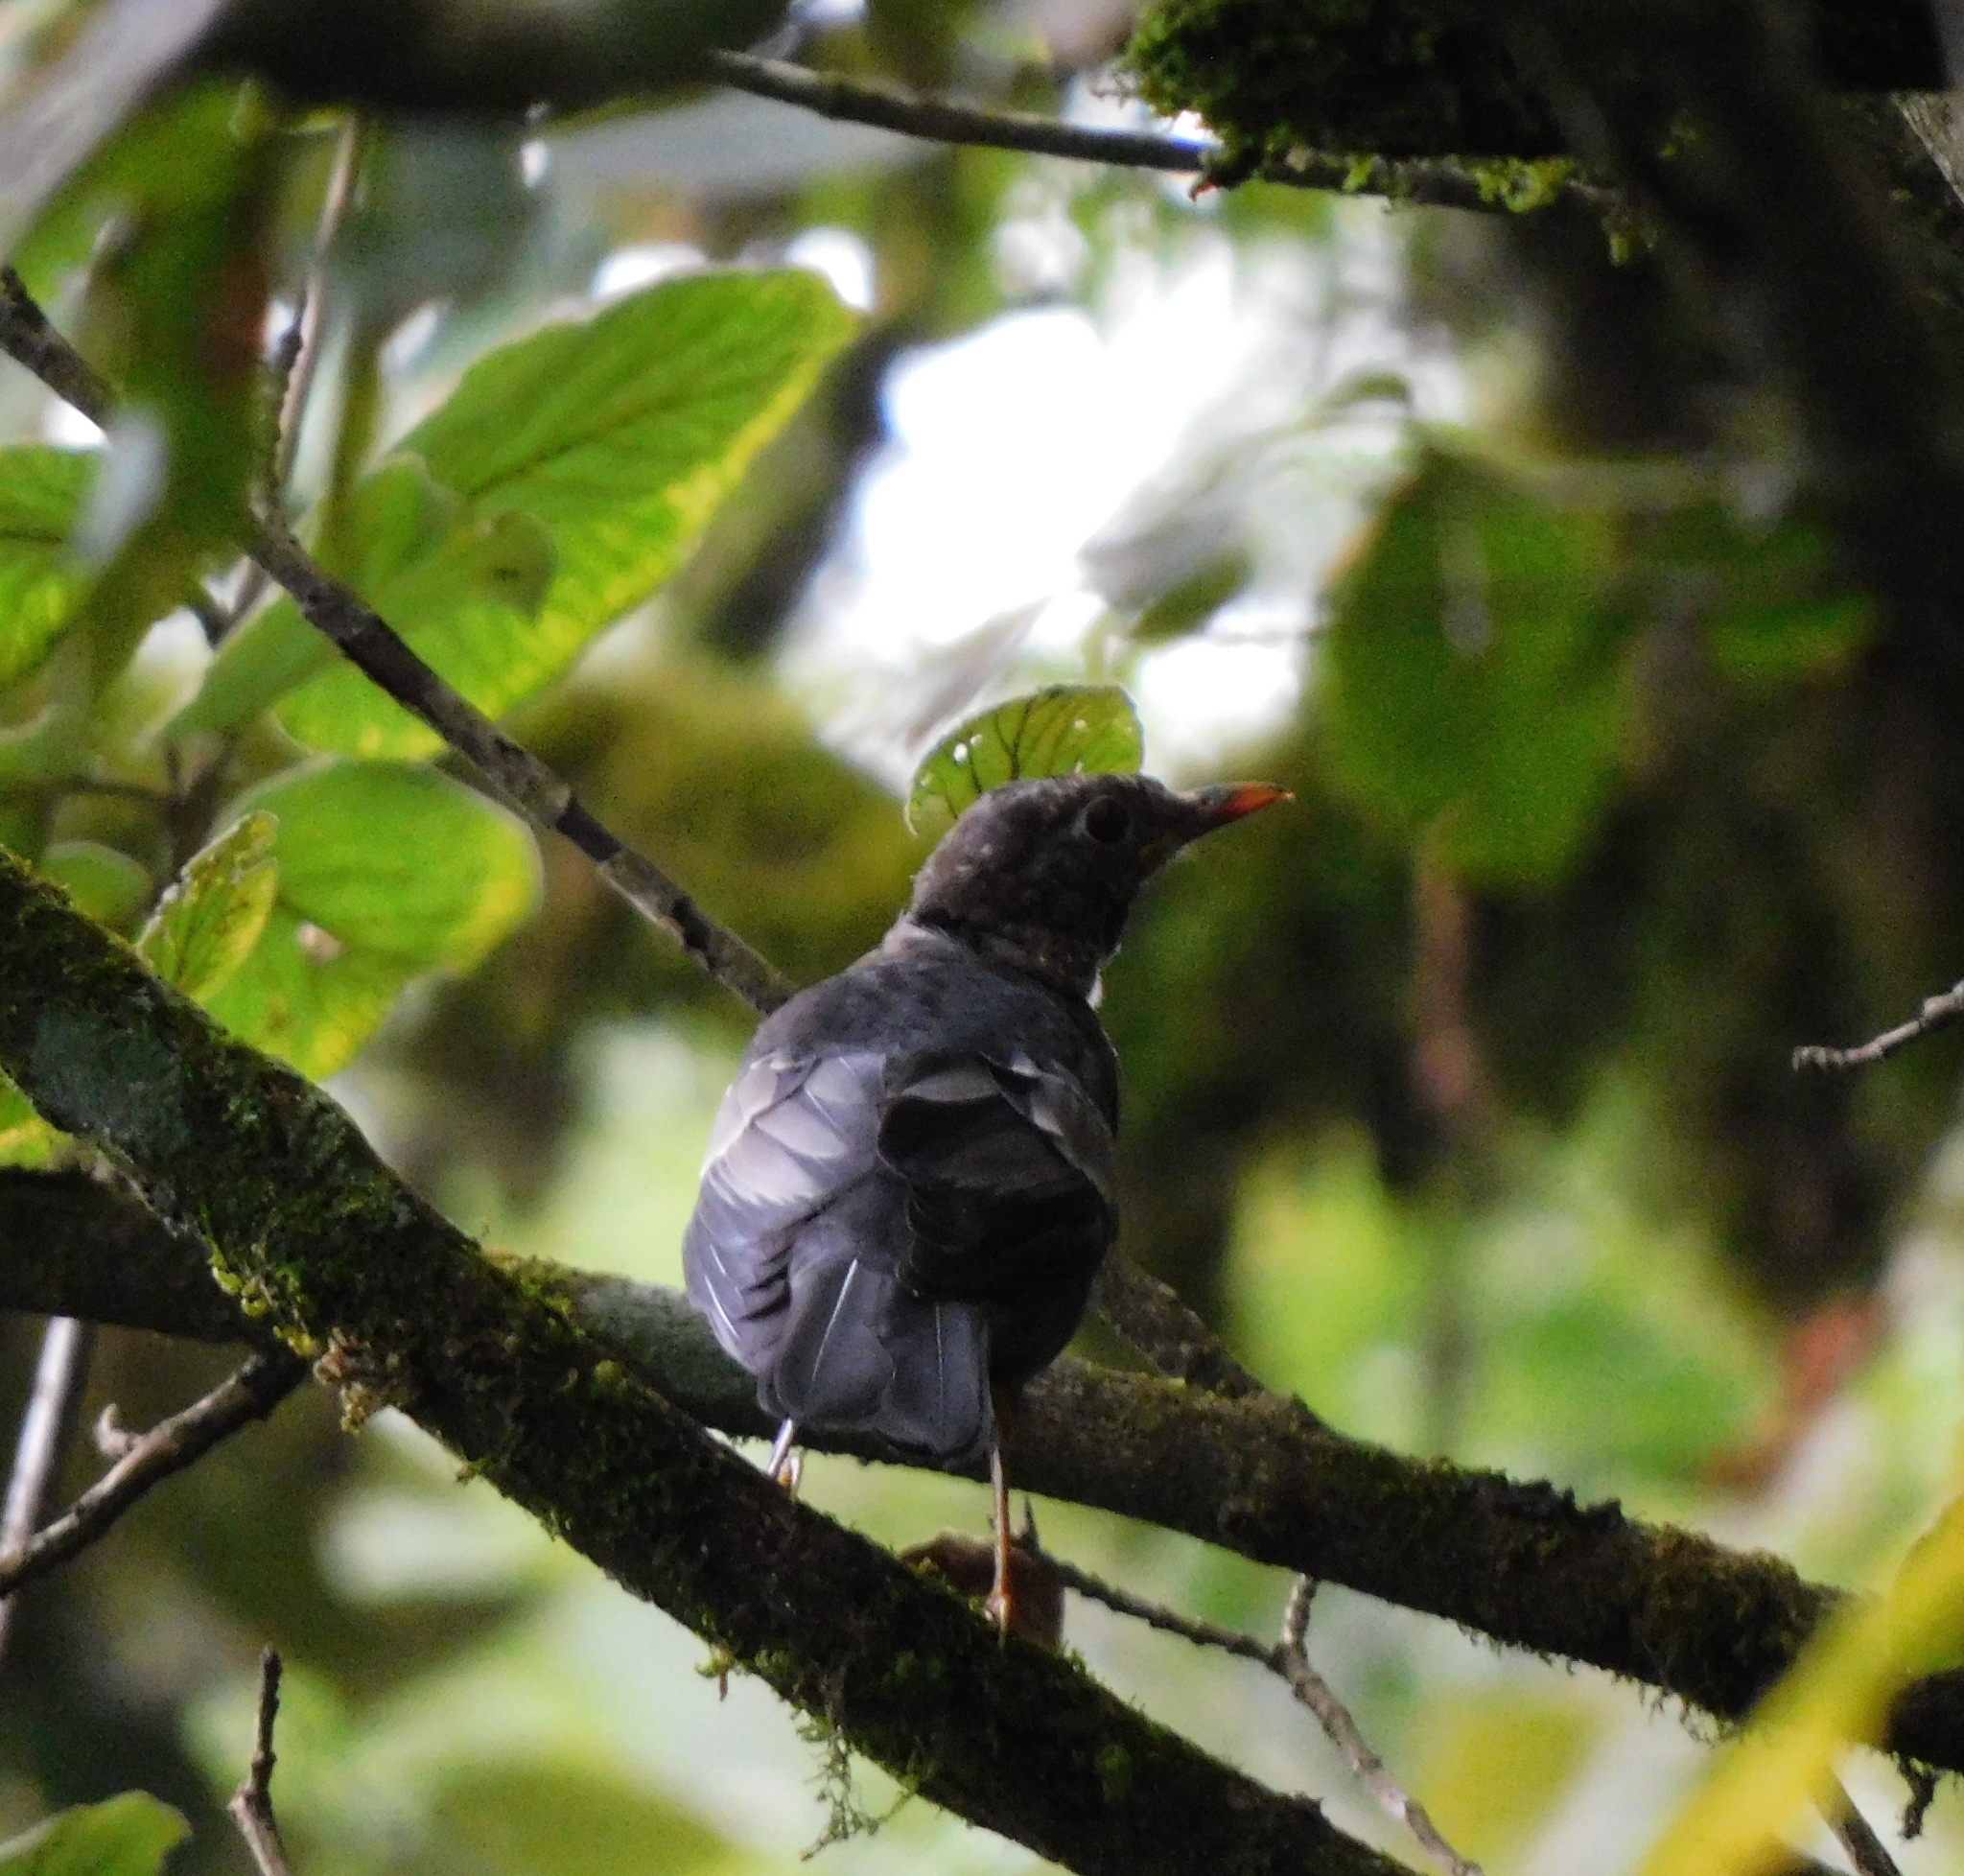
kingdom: Animalia
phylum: Chordata
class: Aves
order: Passeriformes
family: Turdidae
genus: Turdus
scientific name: Turdus boulboul
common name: Grey-winged blackbird
